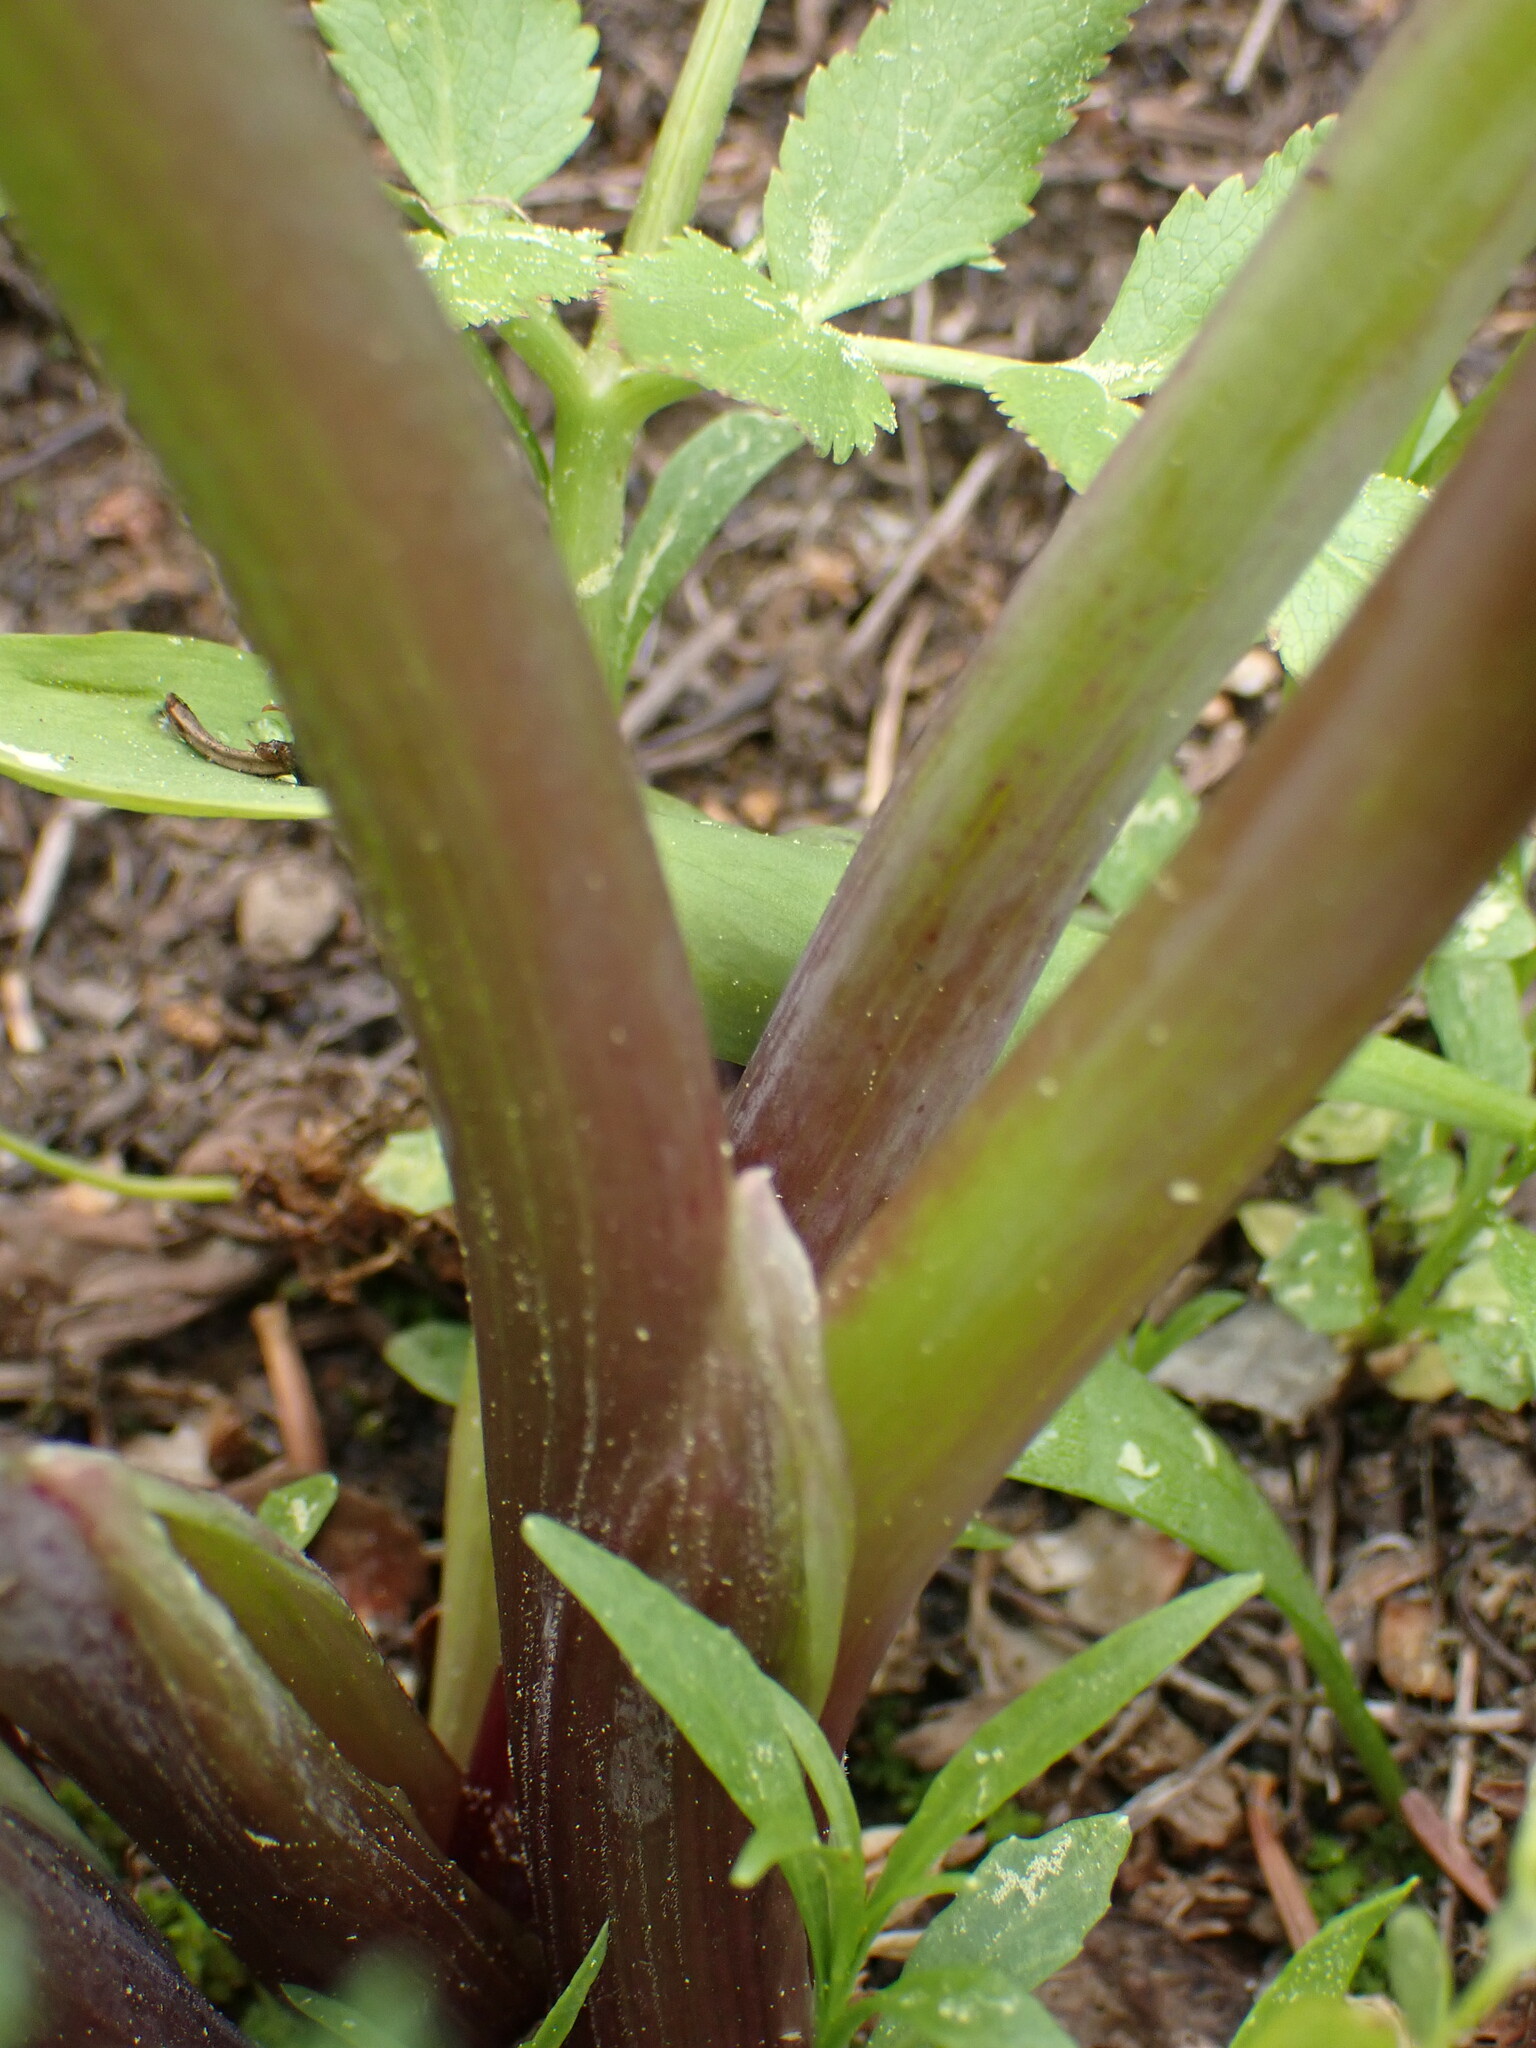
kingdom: Plantae
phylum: Tracheophyta
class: Magnoliopsida
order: Apiales
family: Apiaceae
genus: Angelica
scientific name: Angelica arguta
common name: Lyall's angelica
